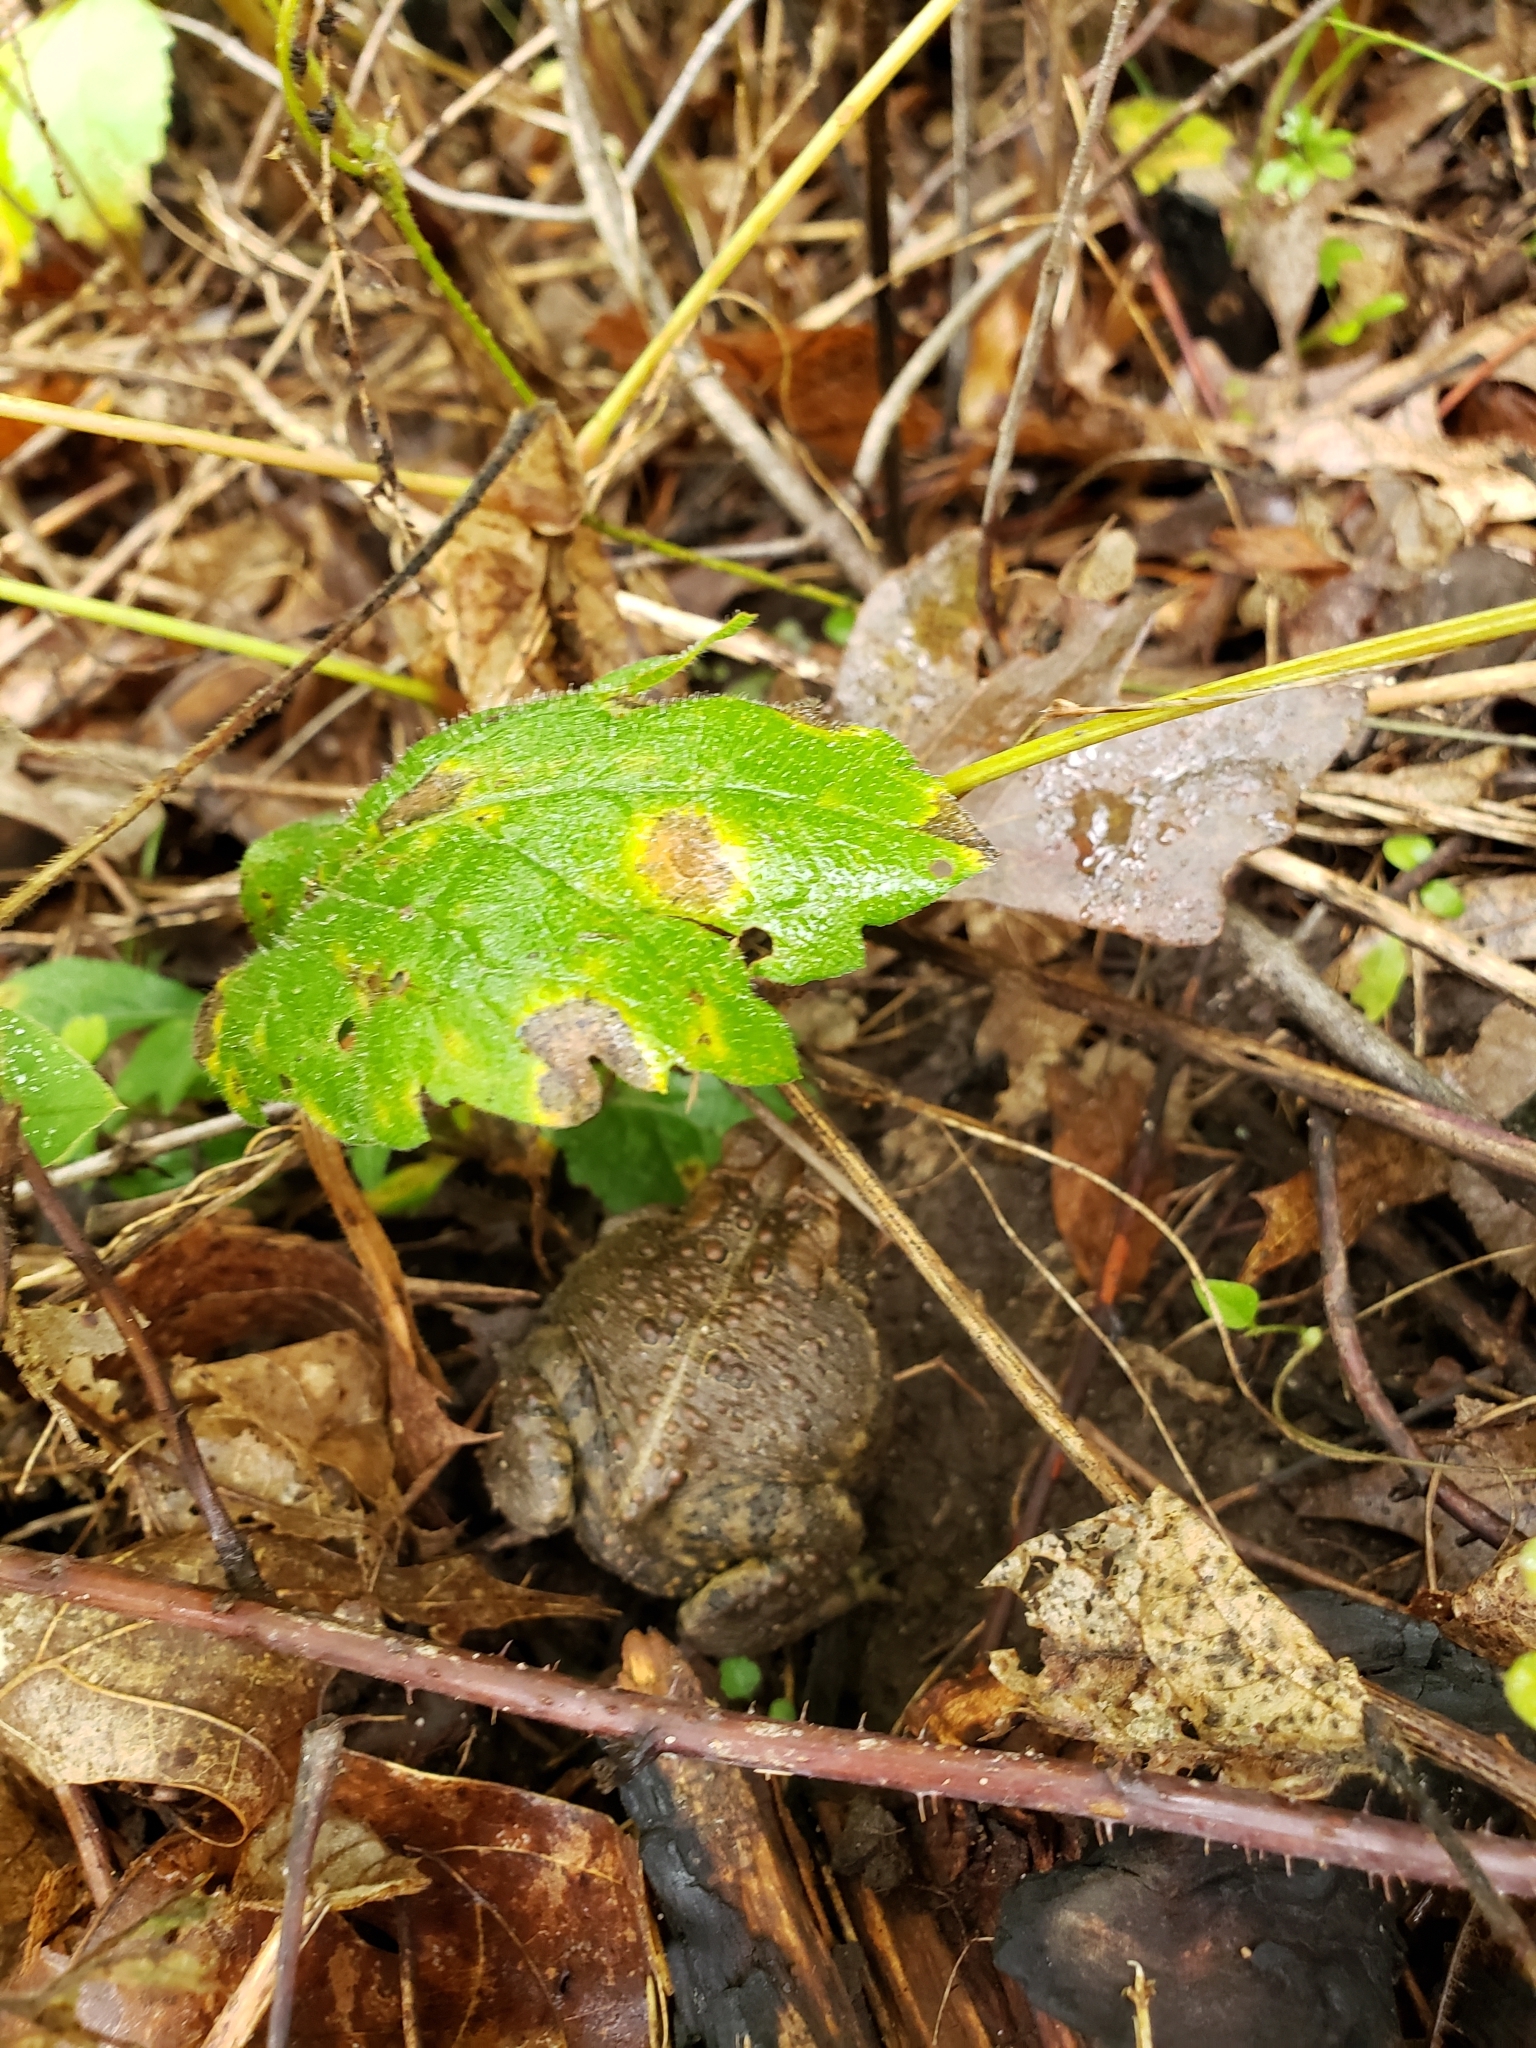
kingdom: Animalia
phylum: Chordata
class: Amphibia
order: Anura
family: Bufonidae
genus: Anaxyrus
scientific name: Anaxyrus americanus
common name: American toad
